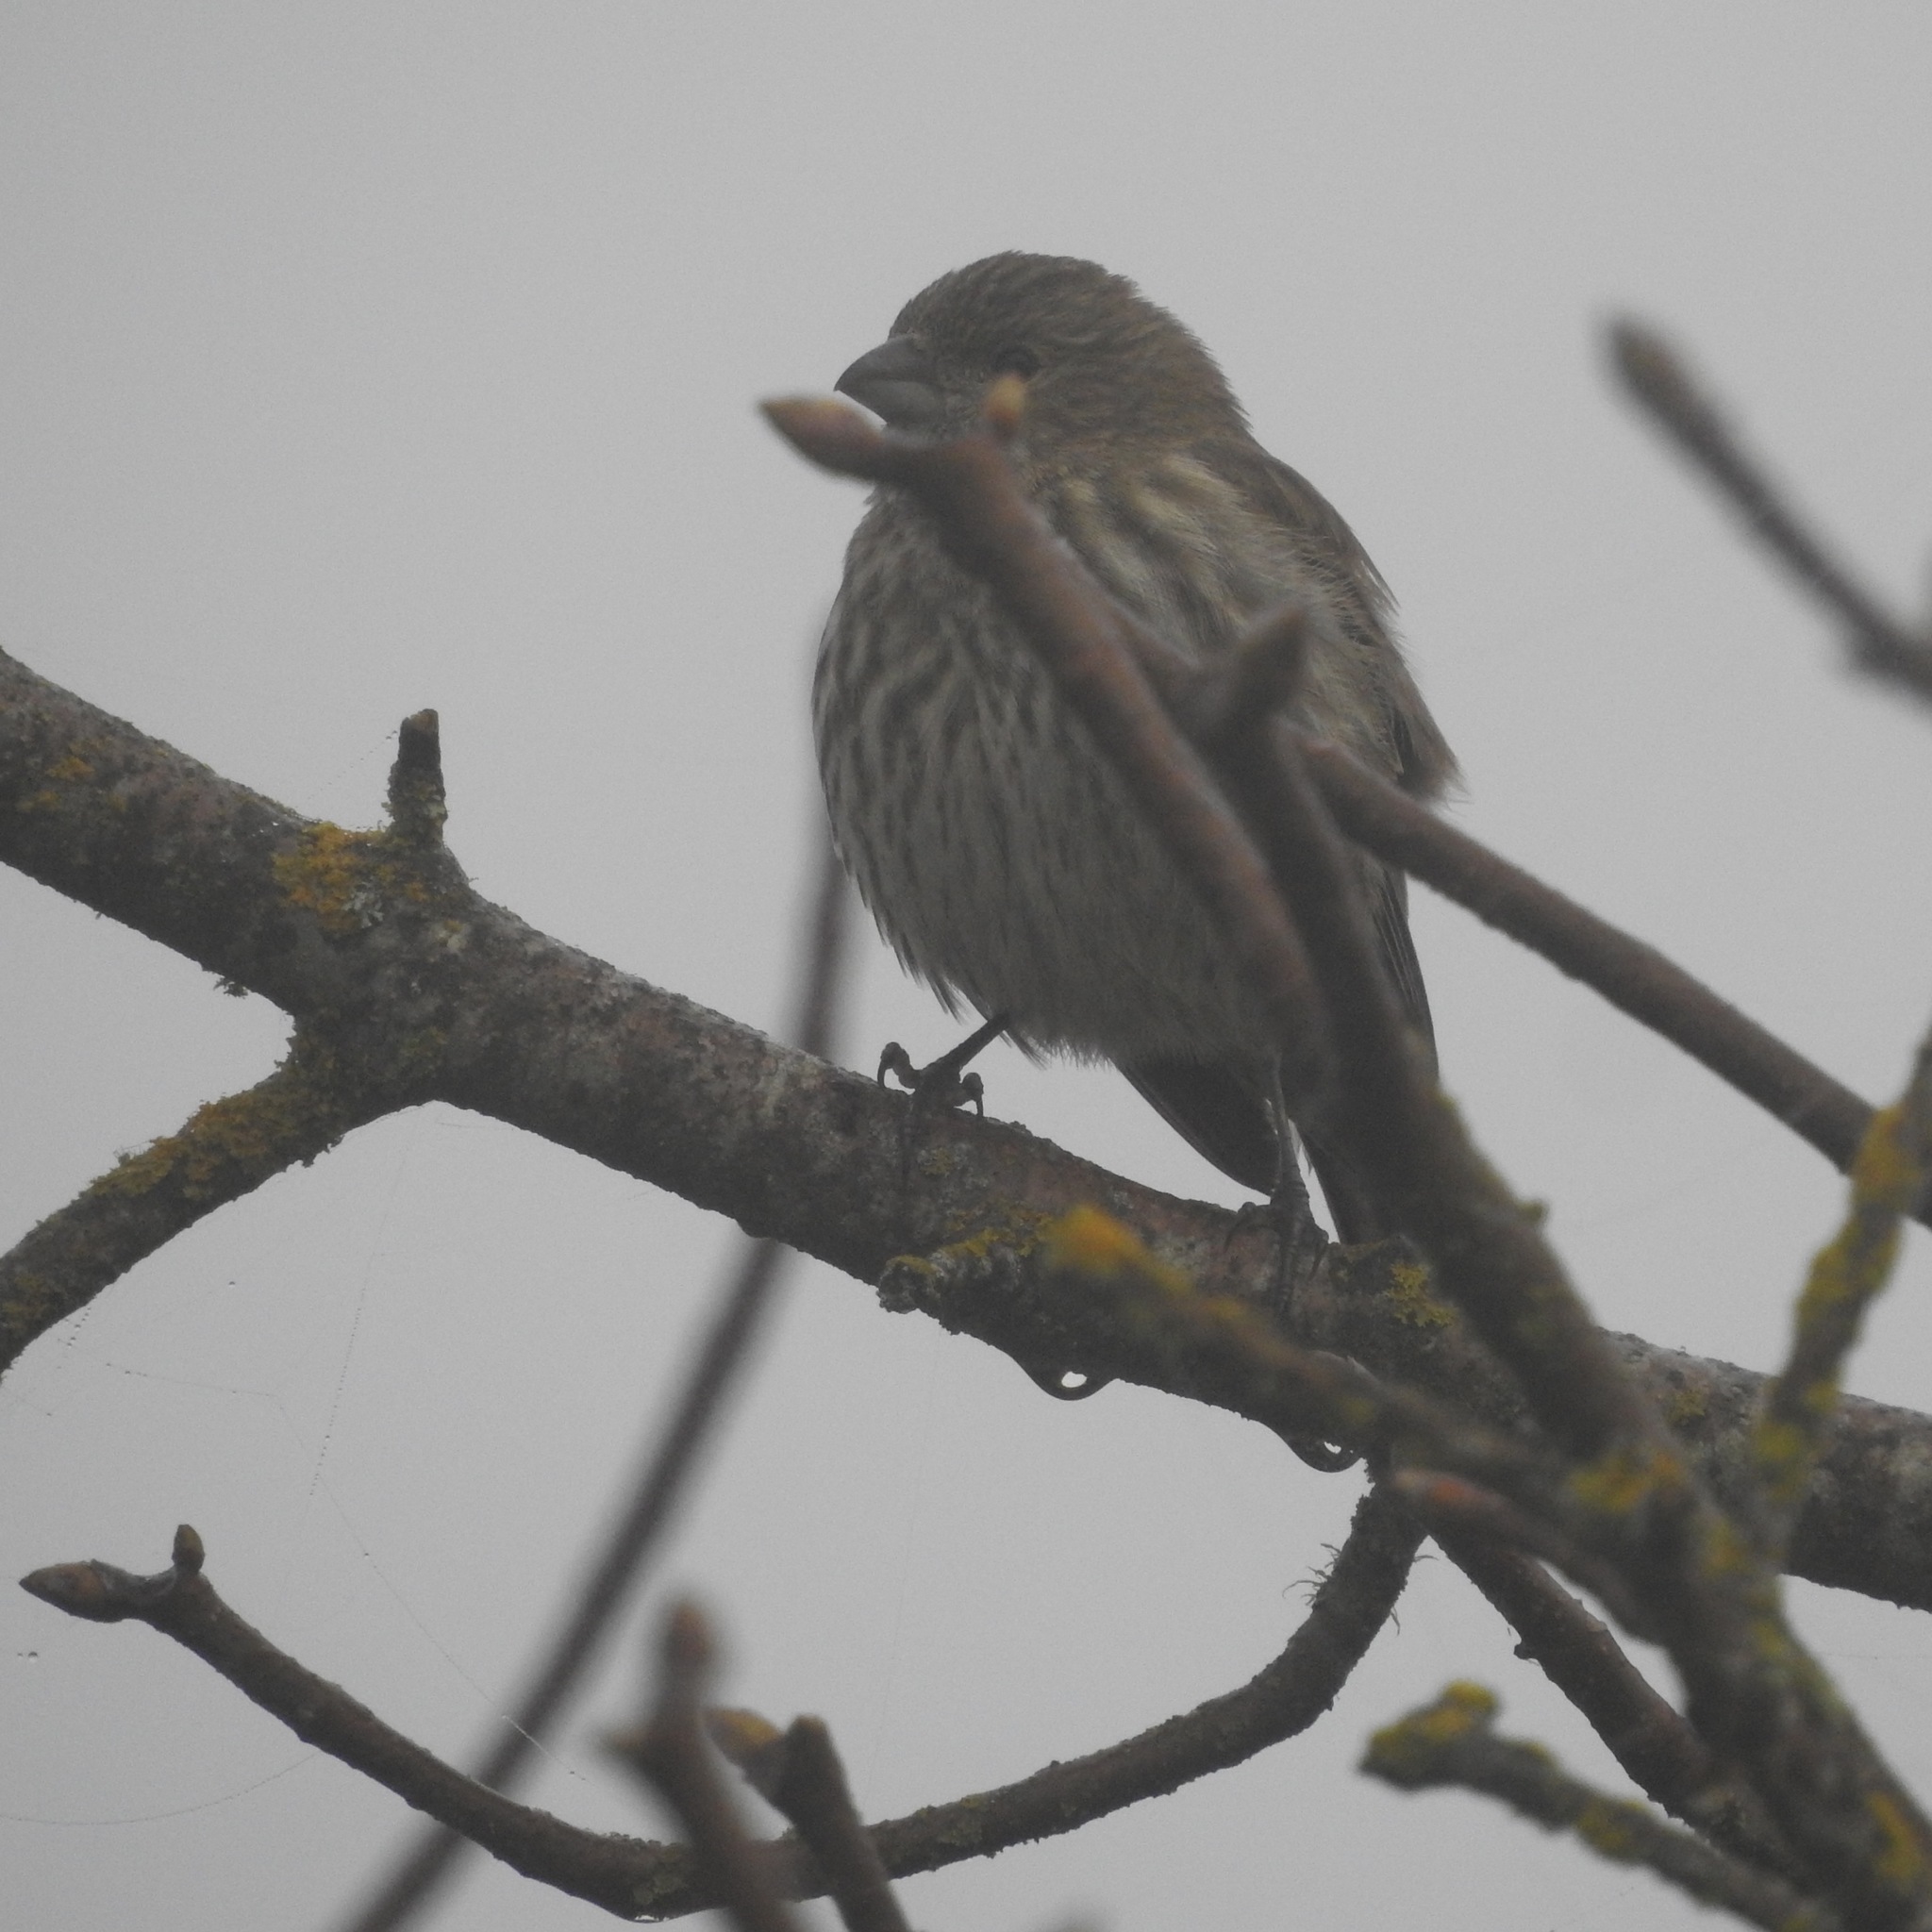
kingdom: Animalia
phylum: Chordata
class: Aves
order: Passeriformes
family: Fringillidae
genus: Haemorhous
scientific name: Haemorhous mexicanus
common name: House finch
